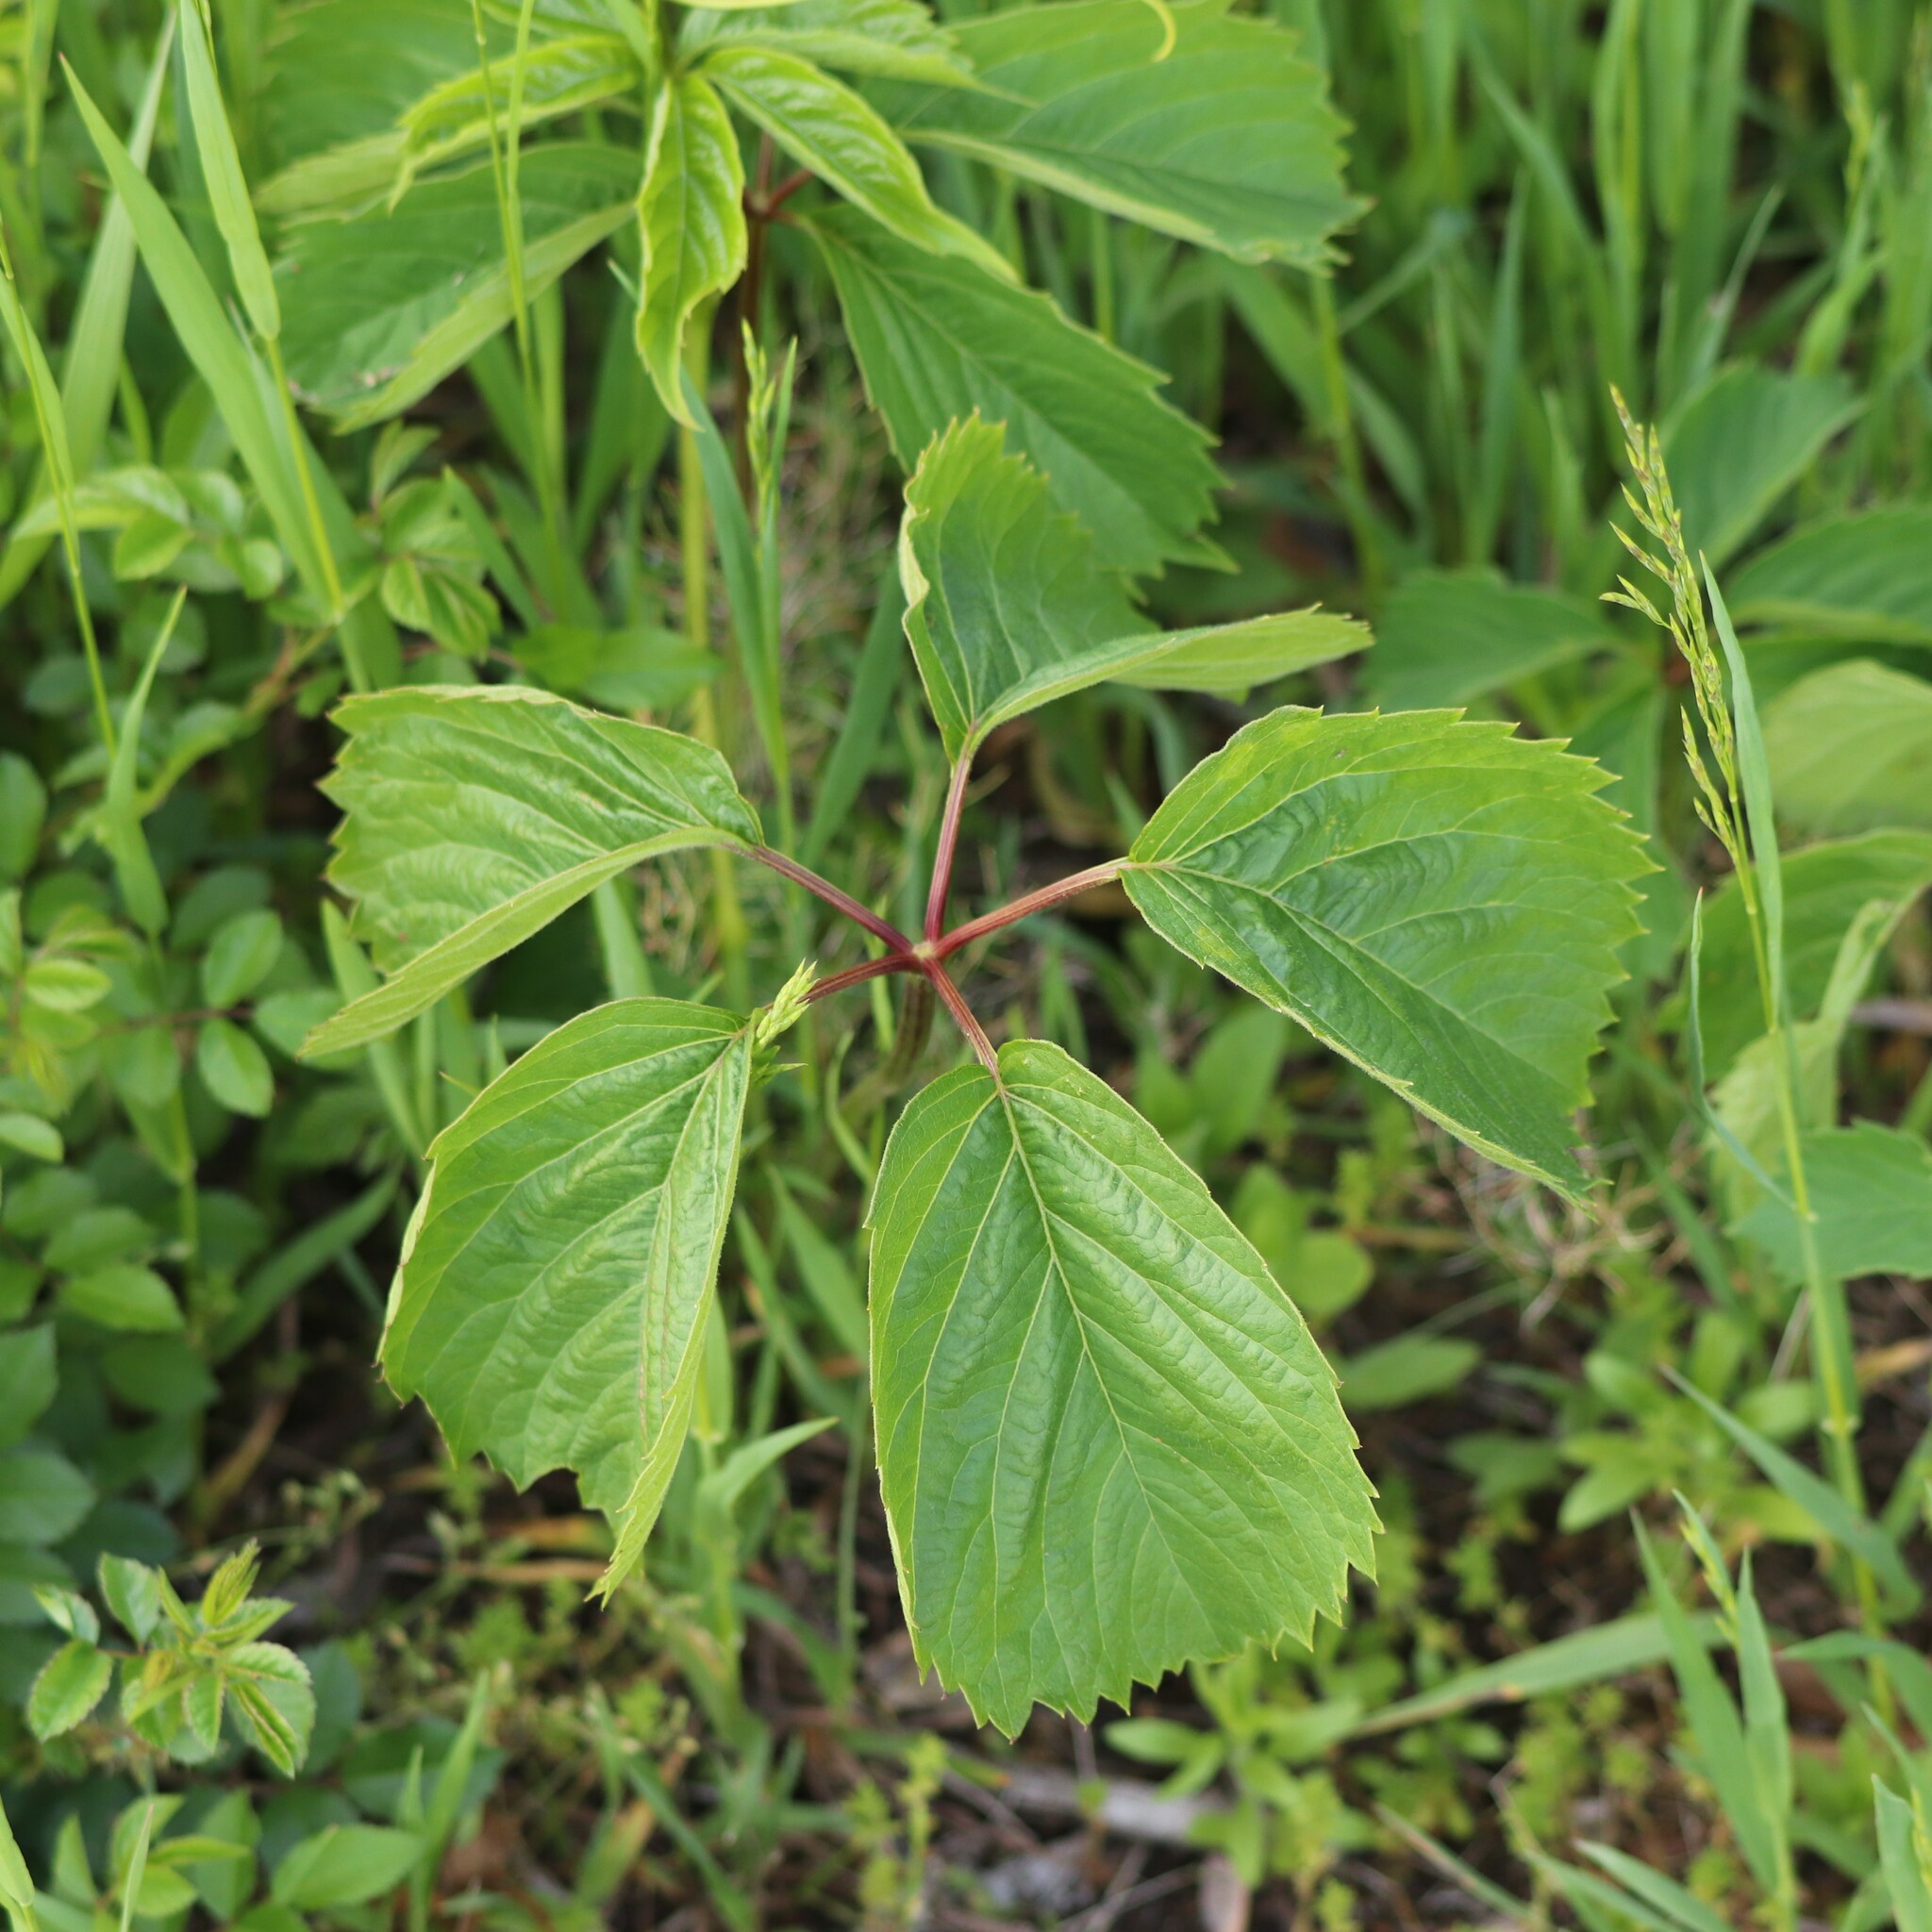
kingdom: Plantae
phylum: Tracheophyta
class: Magnoliopsida
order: Vitales
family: Vitaceae
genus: Parthenocissus
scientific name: Parthenocissus inserta
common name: False virginia-creeper
